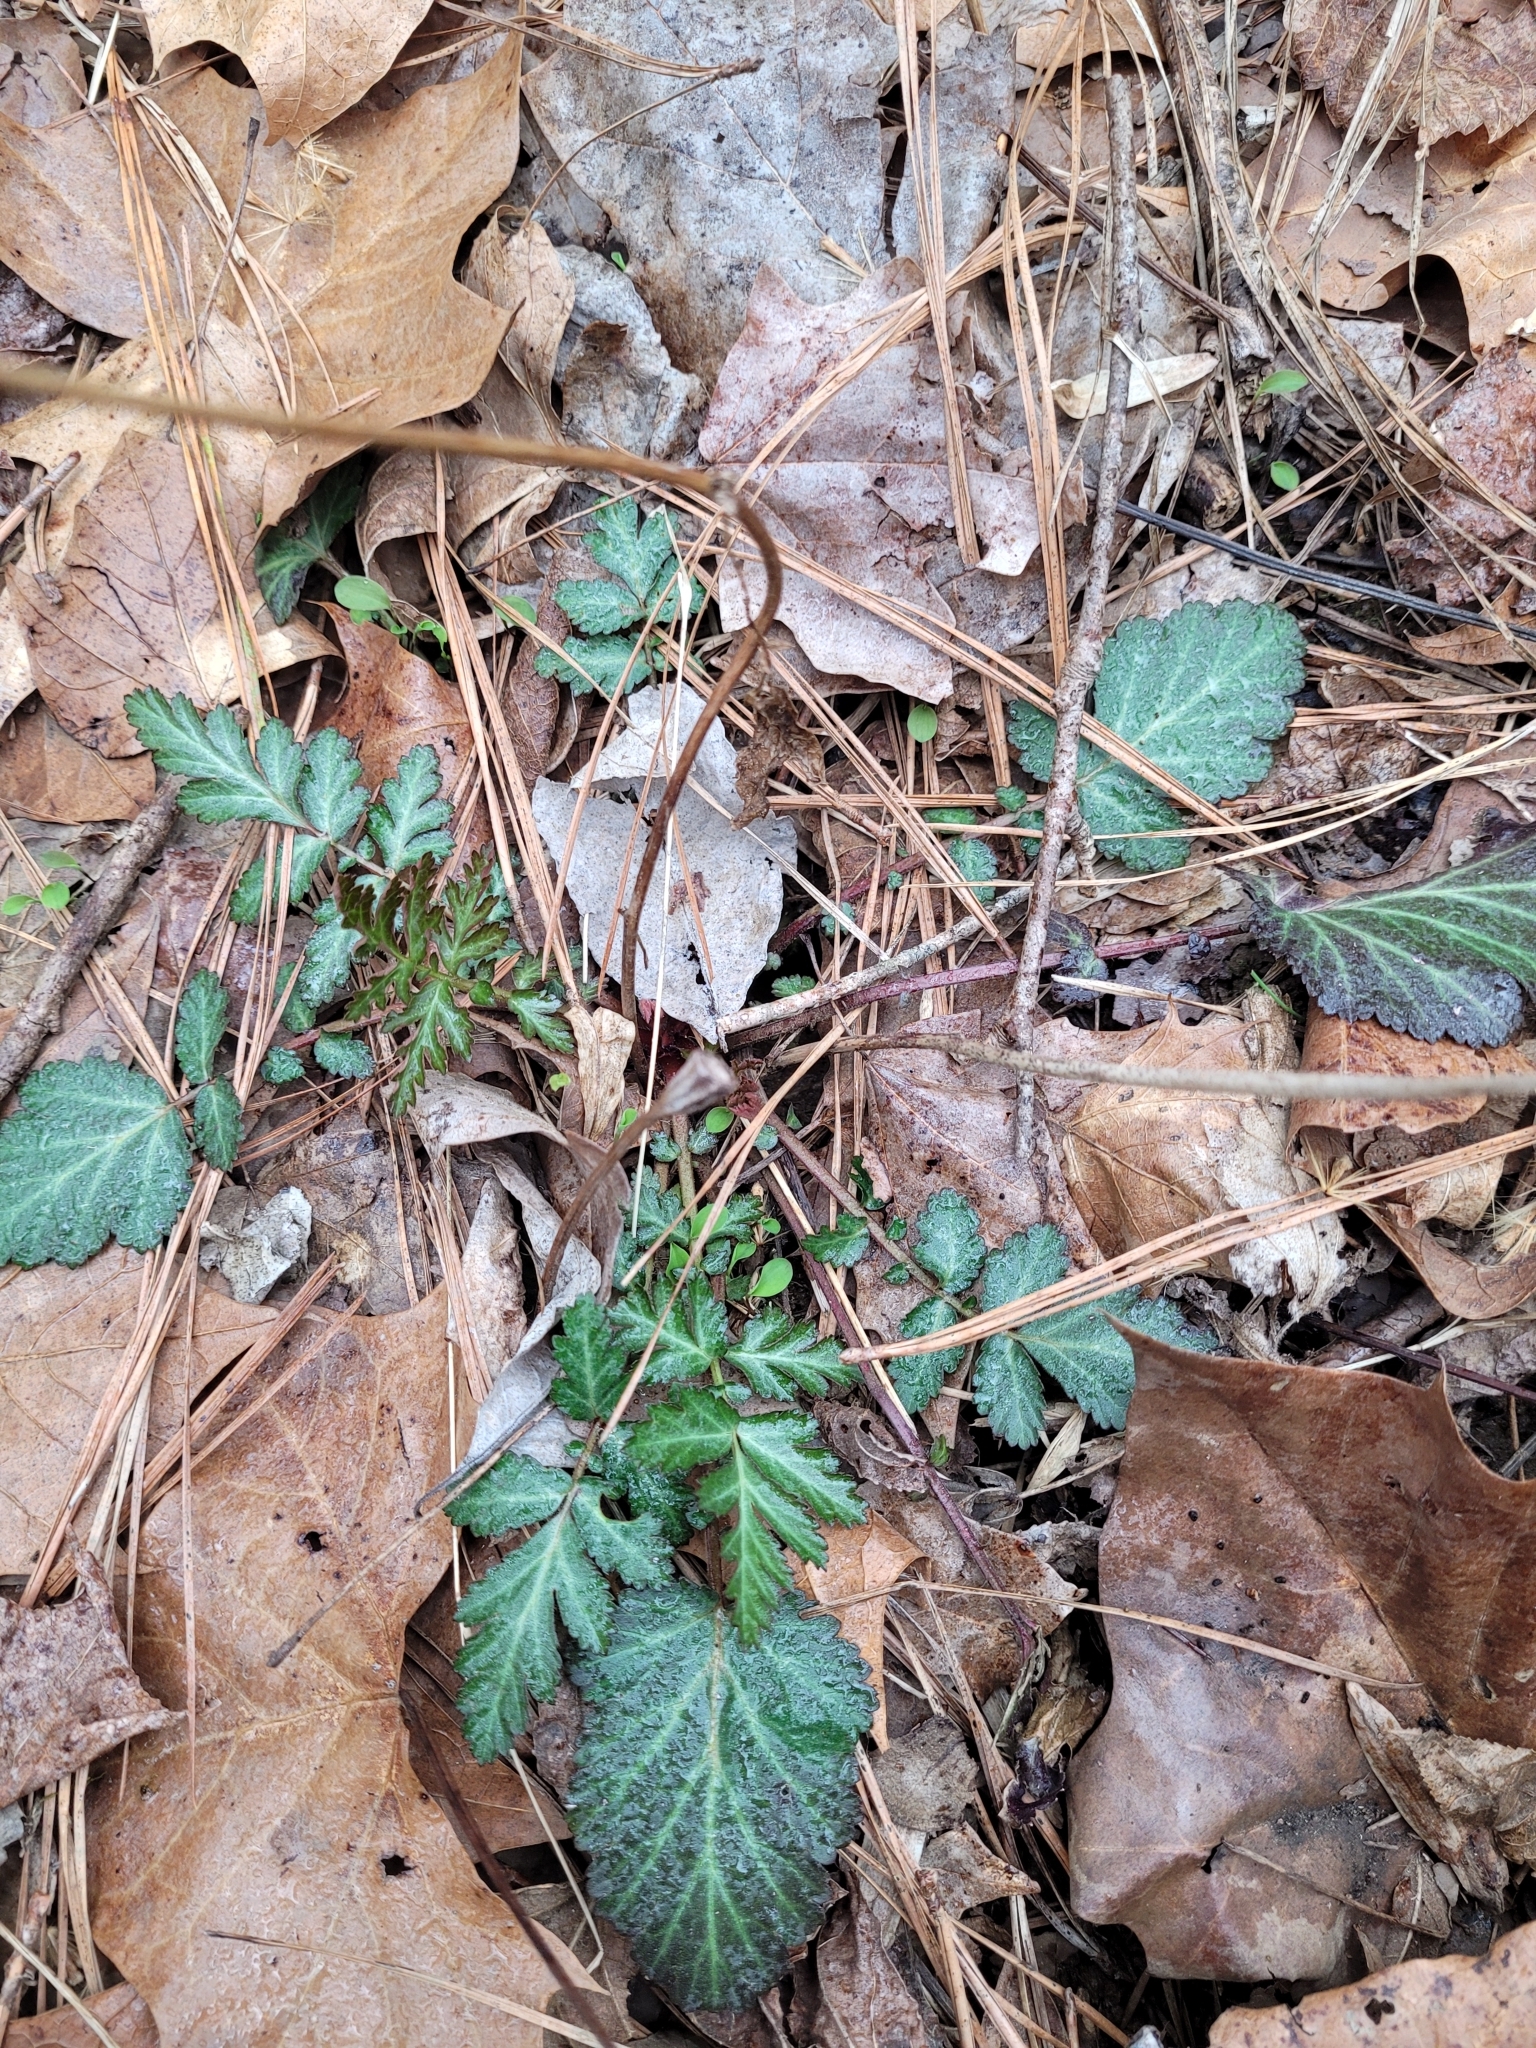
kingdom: Plantae
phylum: Tracheophyta
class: Magnoliopsida
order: Rosales
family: Rosaceae
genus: Geum
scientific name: Geum canadense
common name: White avens
